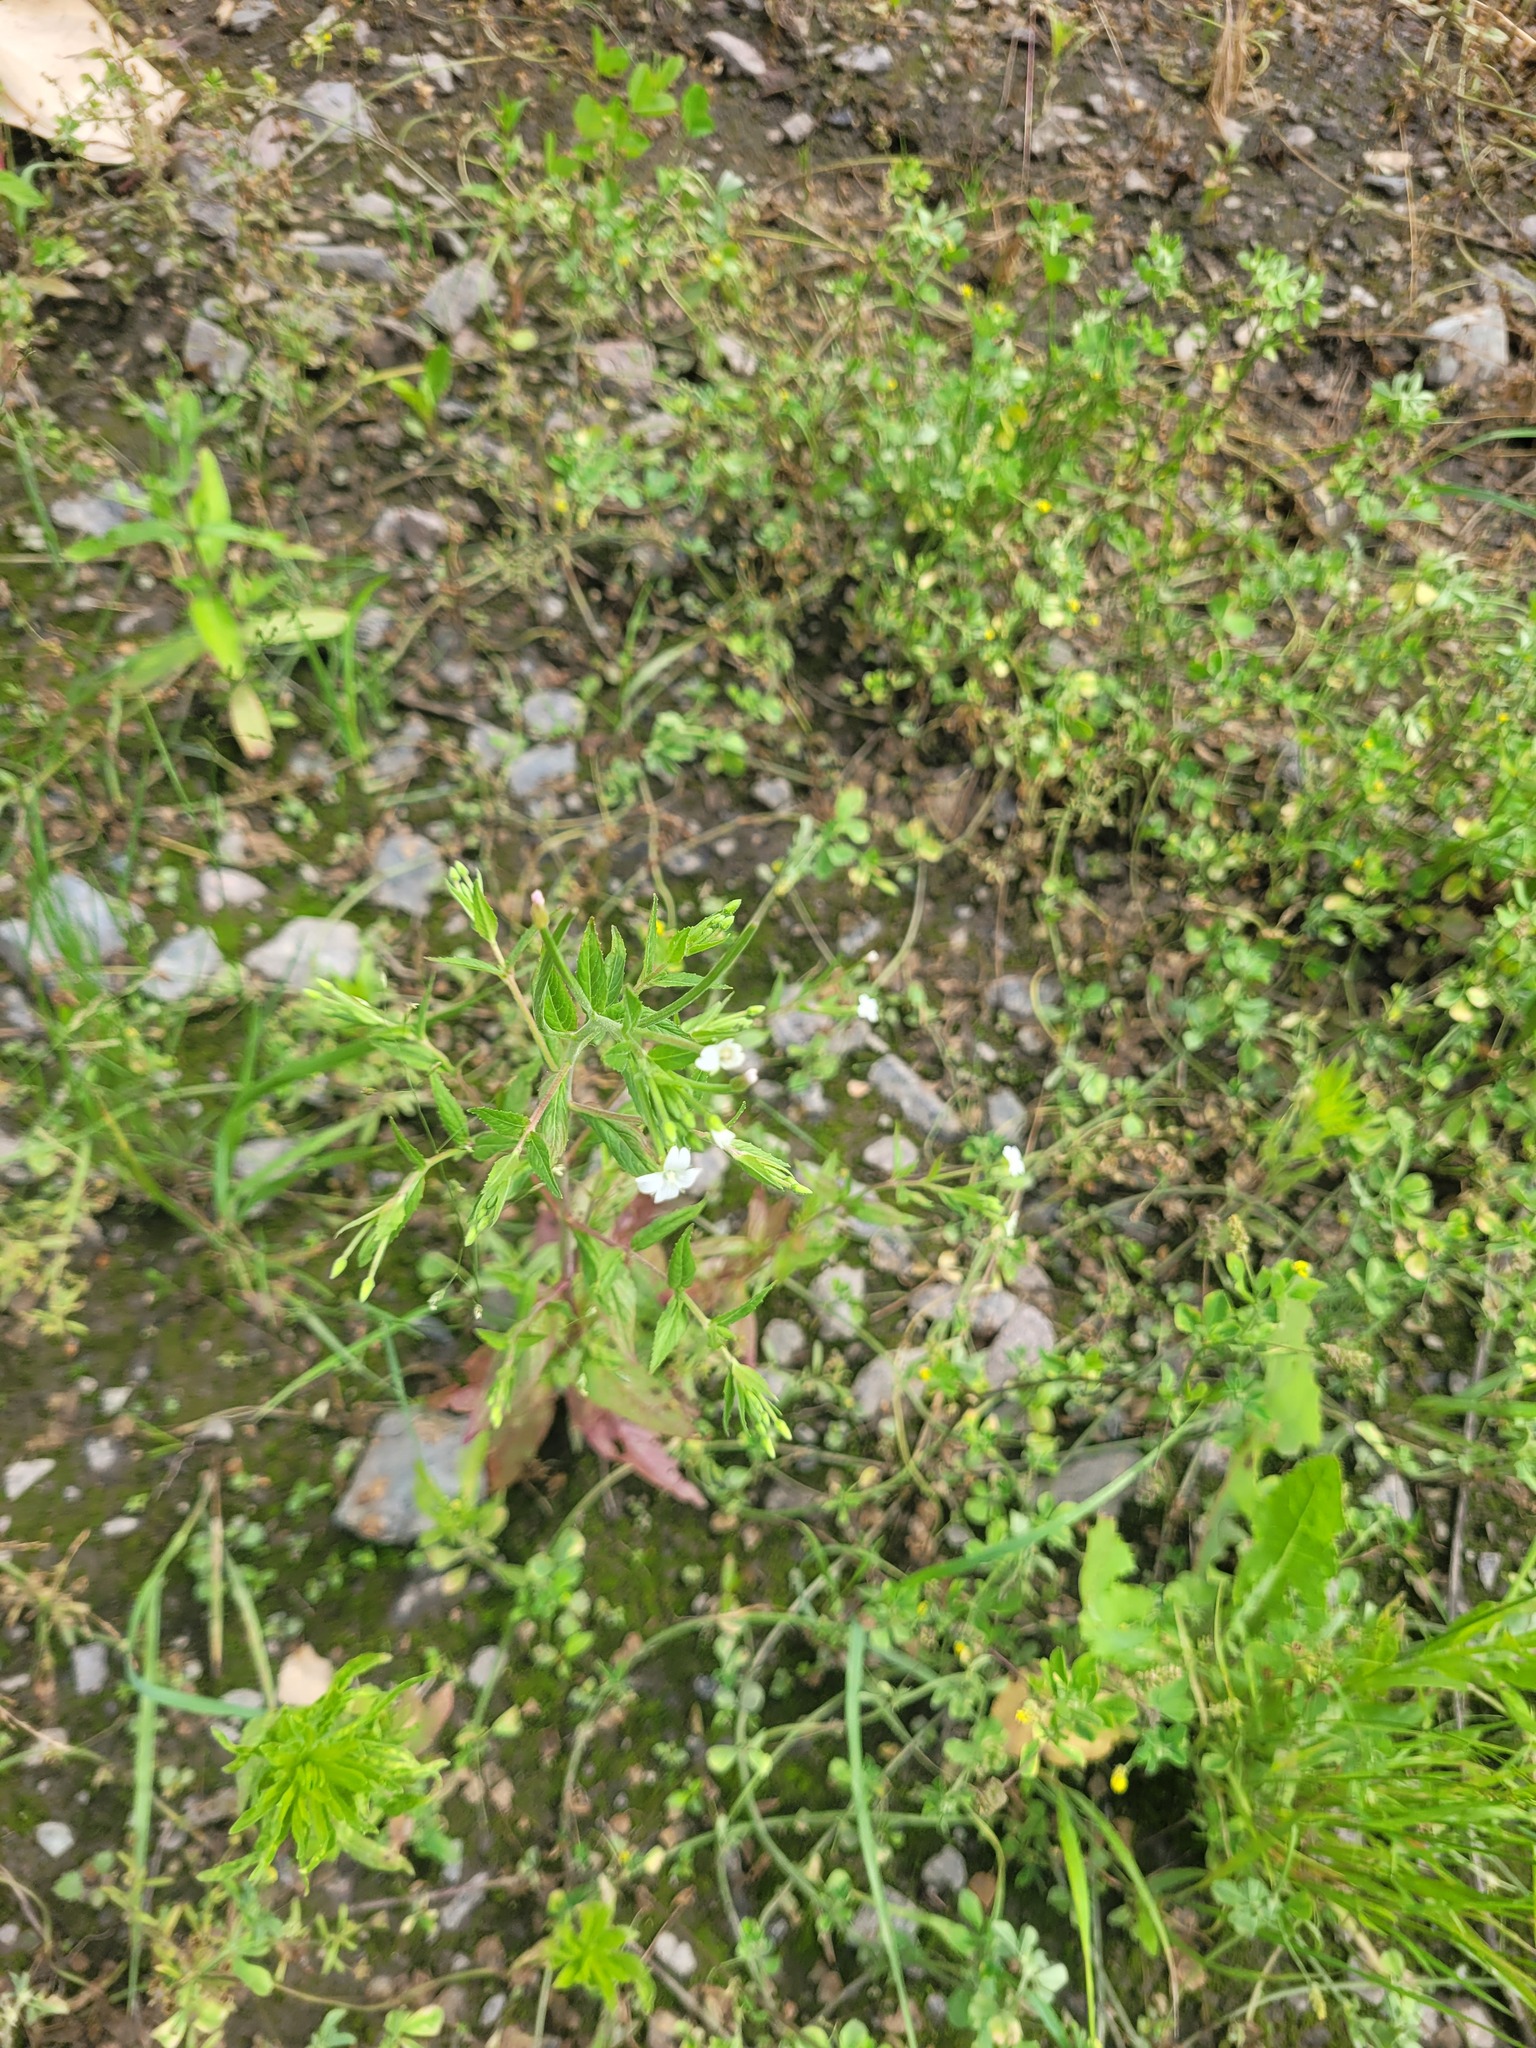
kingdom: Plantae
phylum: Tracheophyta
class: Magnoliopsida
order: Myrtales
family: Onagraceae
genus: Epilobium
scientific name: Epilobium pseudorubescens
